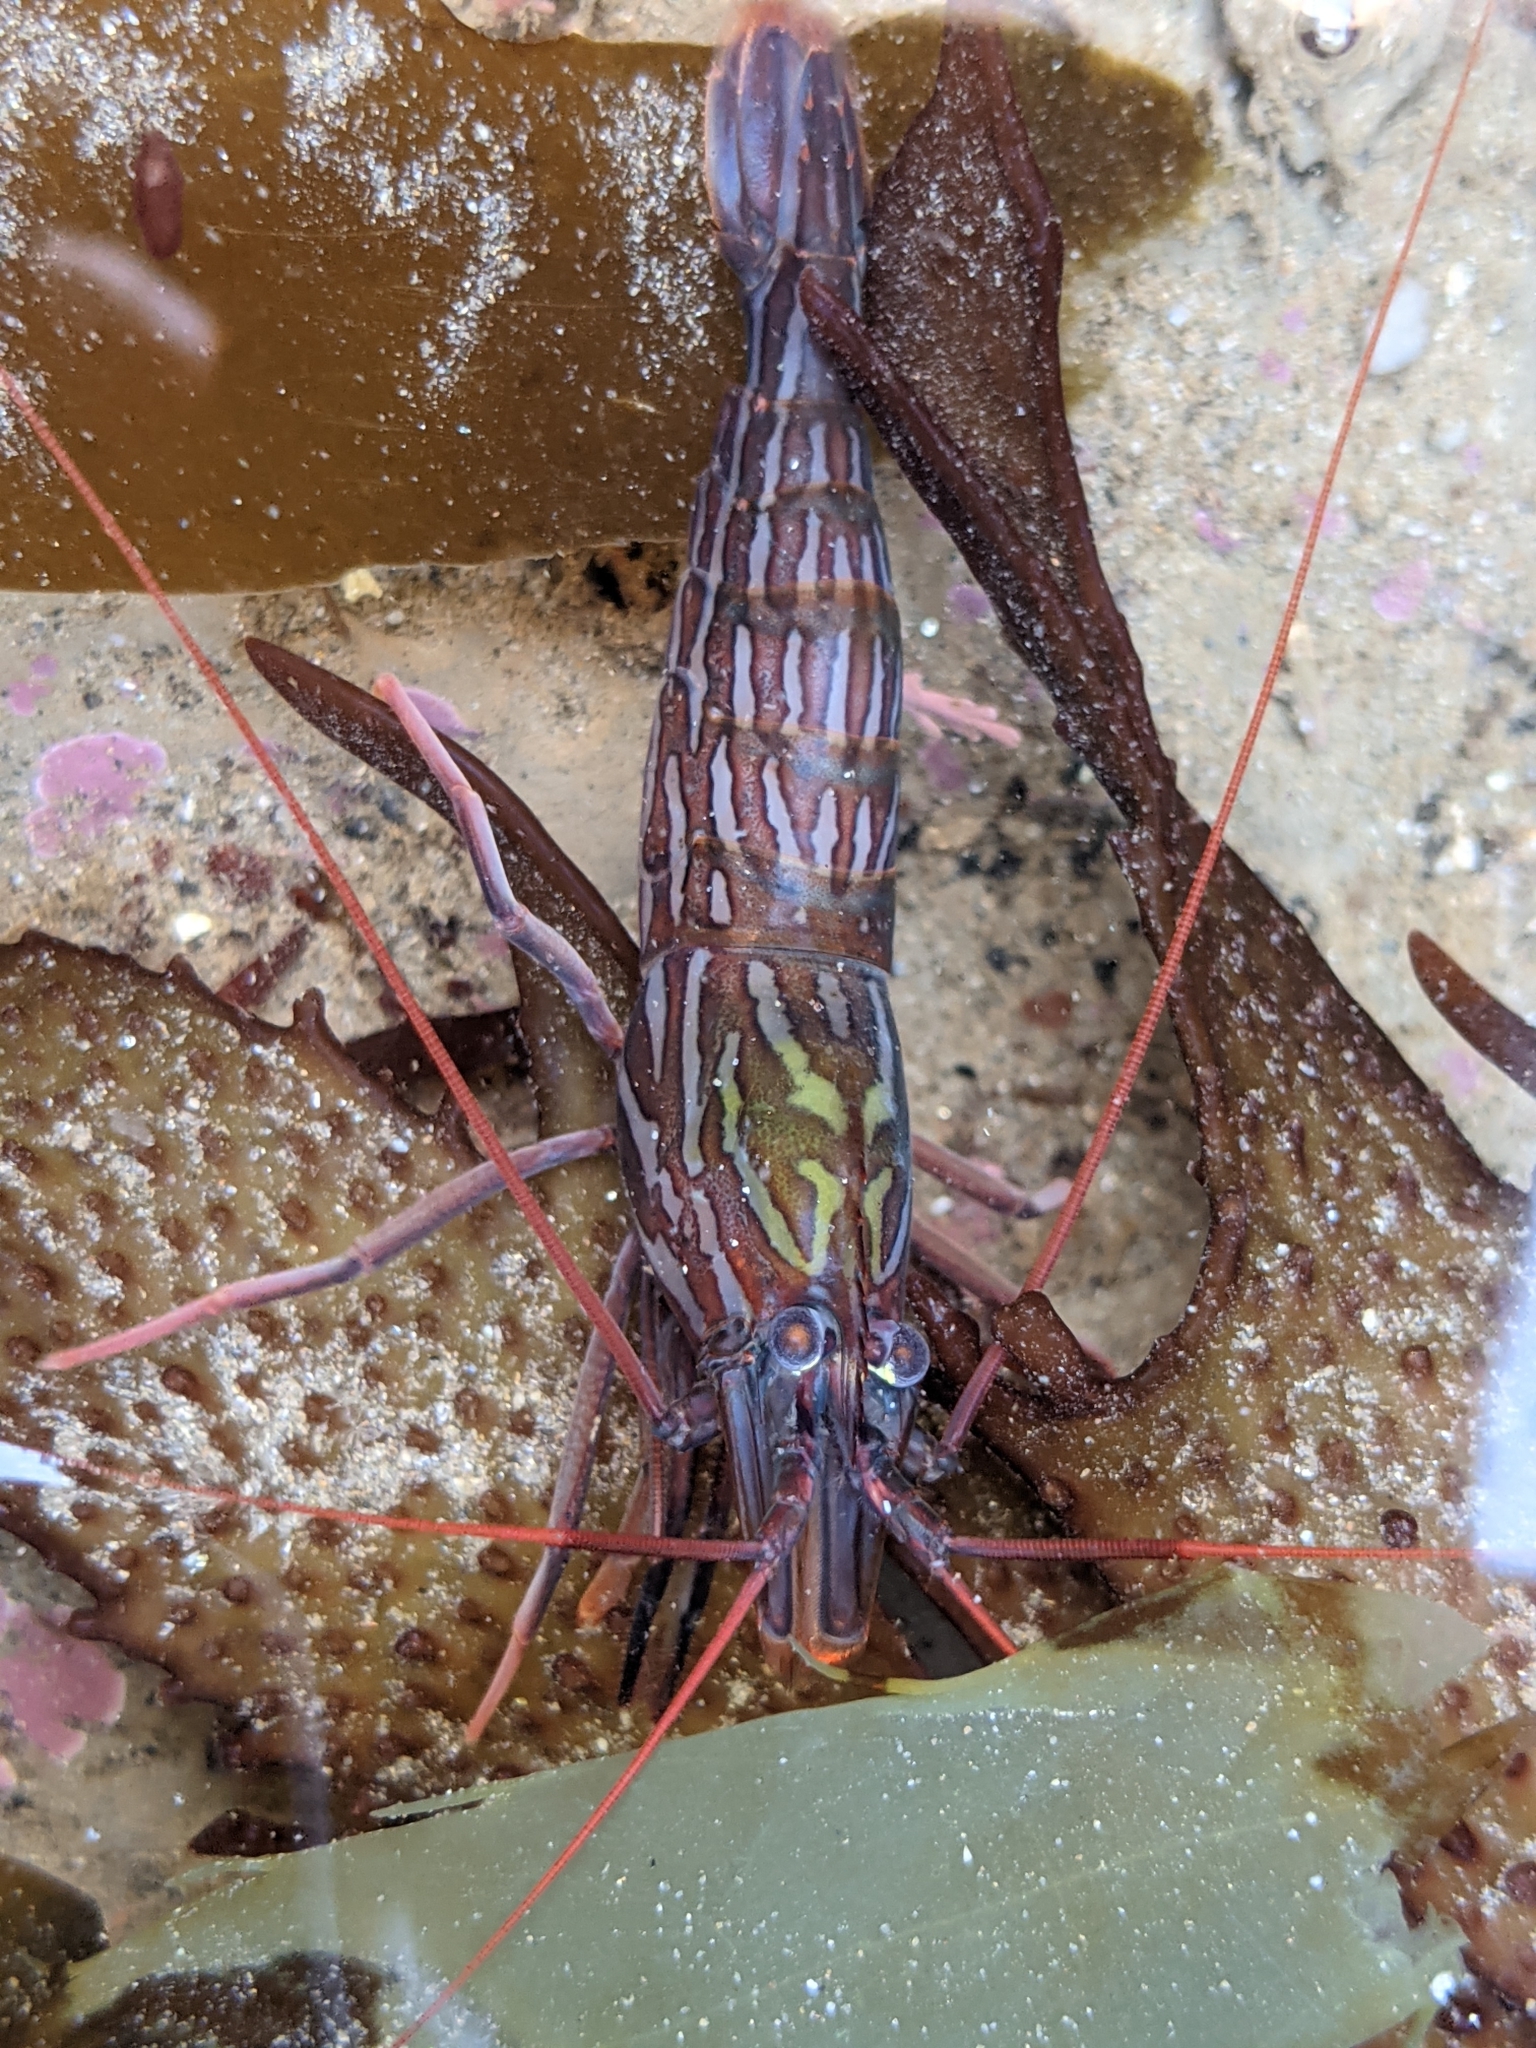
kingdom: Animalia
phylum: Arthropoda
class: Malacostraca
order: Decapoda
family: Lysmatidae
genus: Lysmata
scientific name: Lysmata californica
